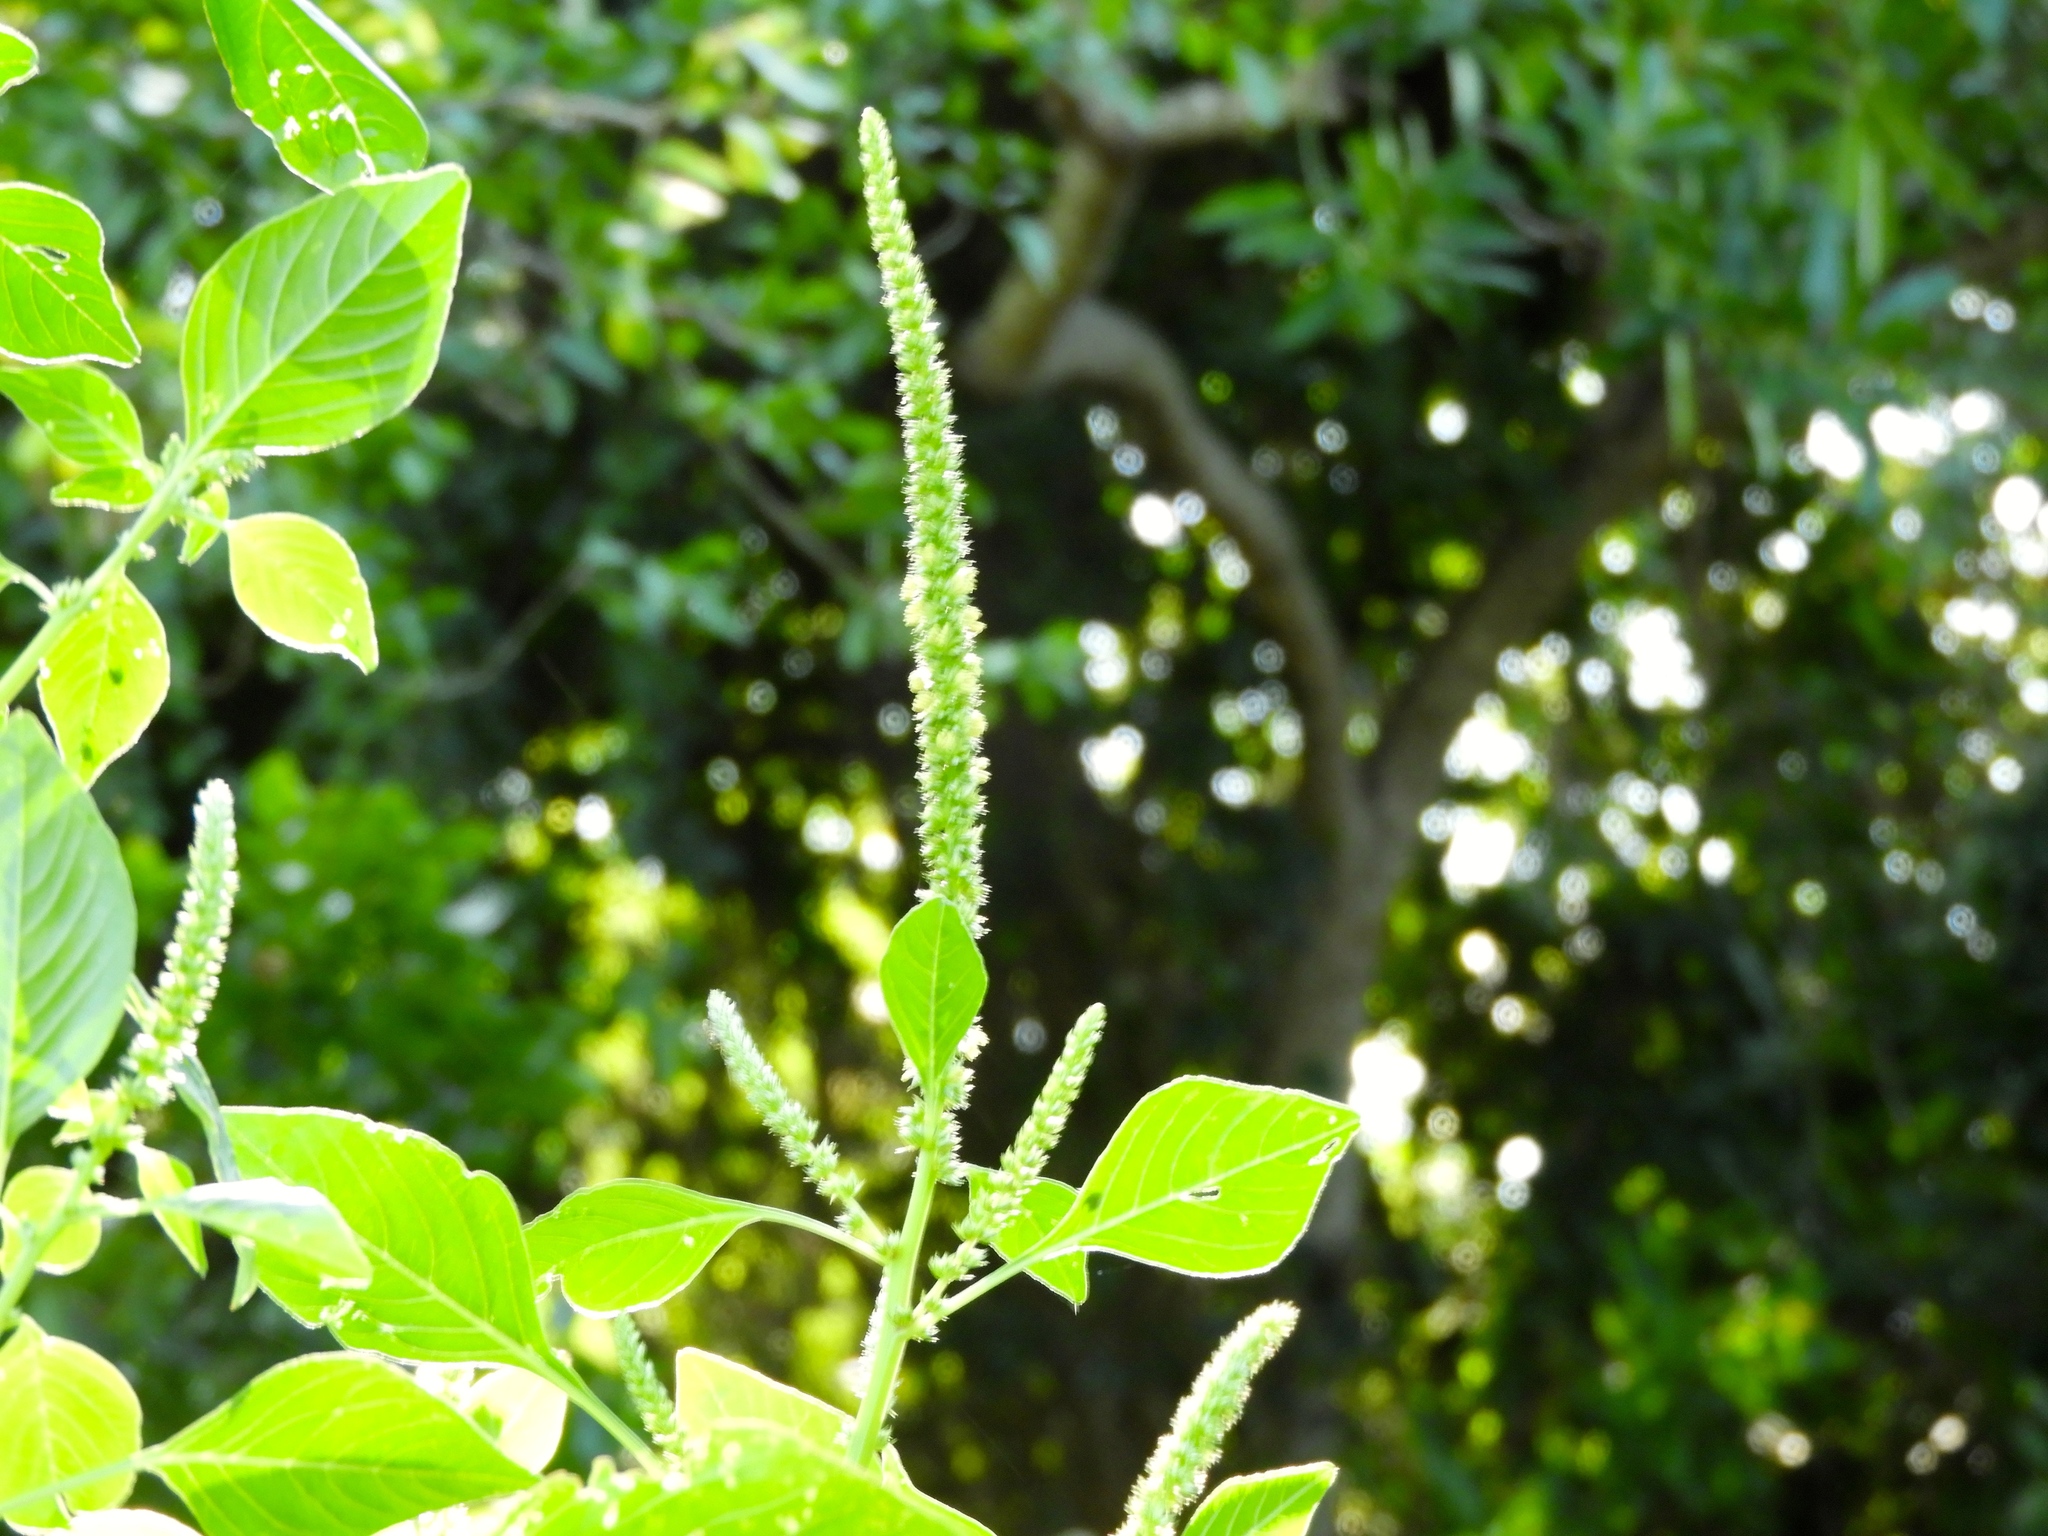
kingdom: Plantae
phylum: Tracheophyta
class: Magnoliopsida
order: Caryophyllales
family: Amaranthaceae
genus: Amaranthus
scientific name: Amaranthus palmeri
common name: Dioecious amaranth
